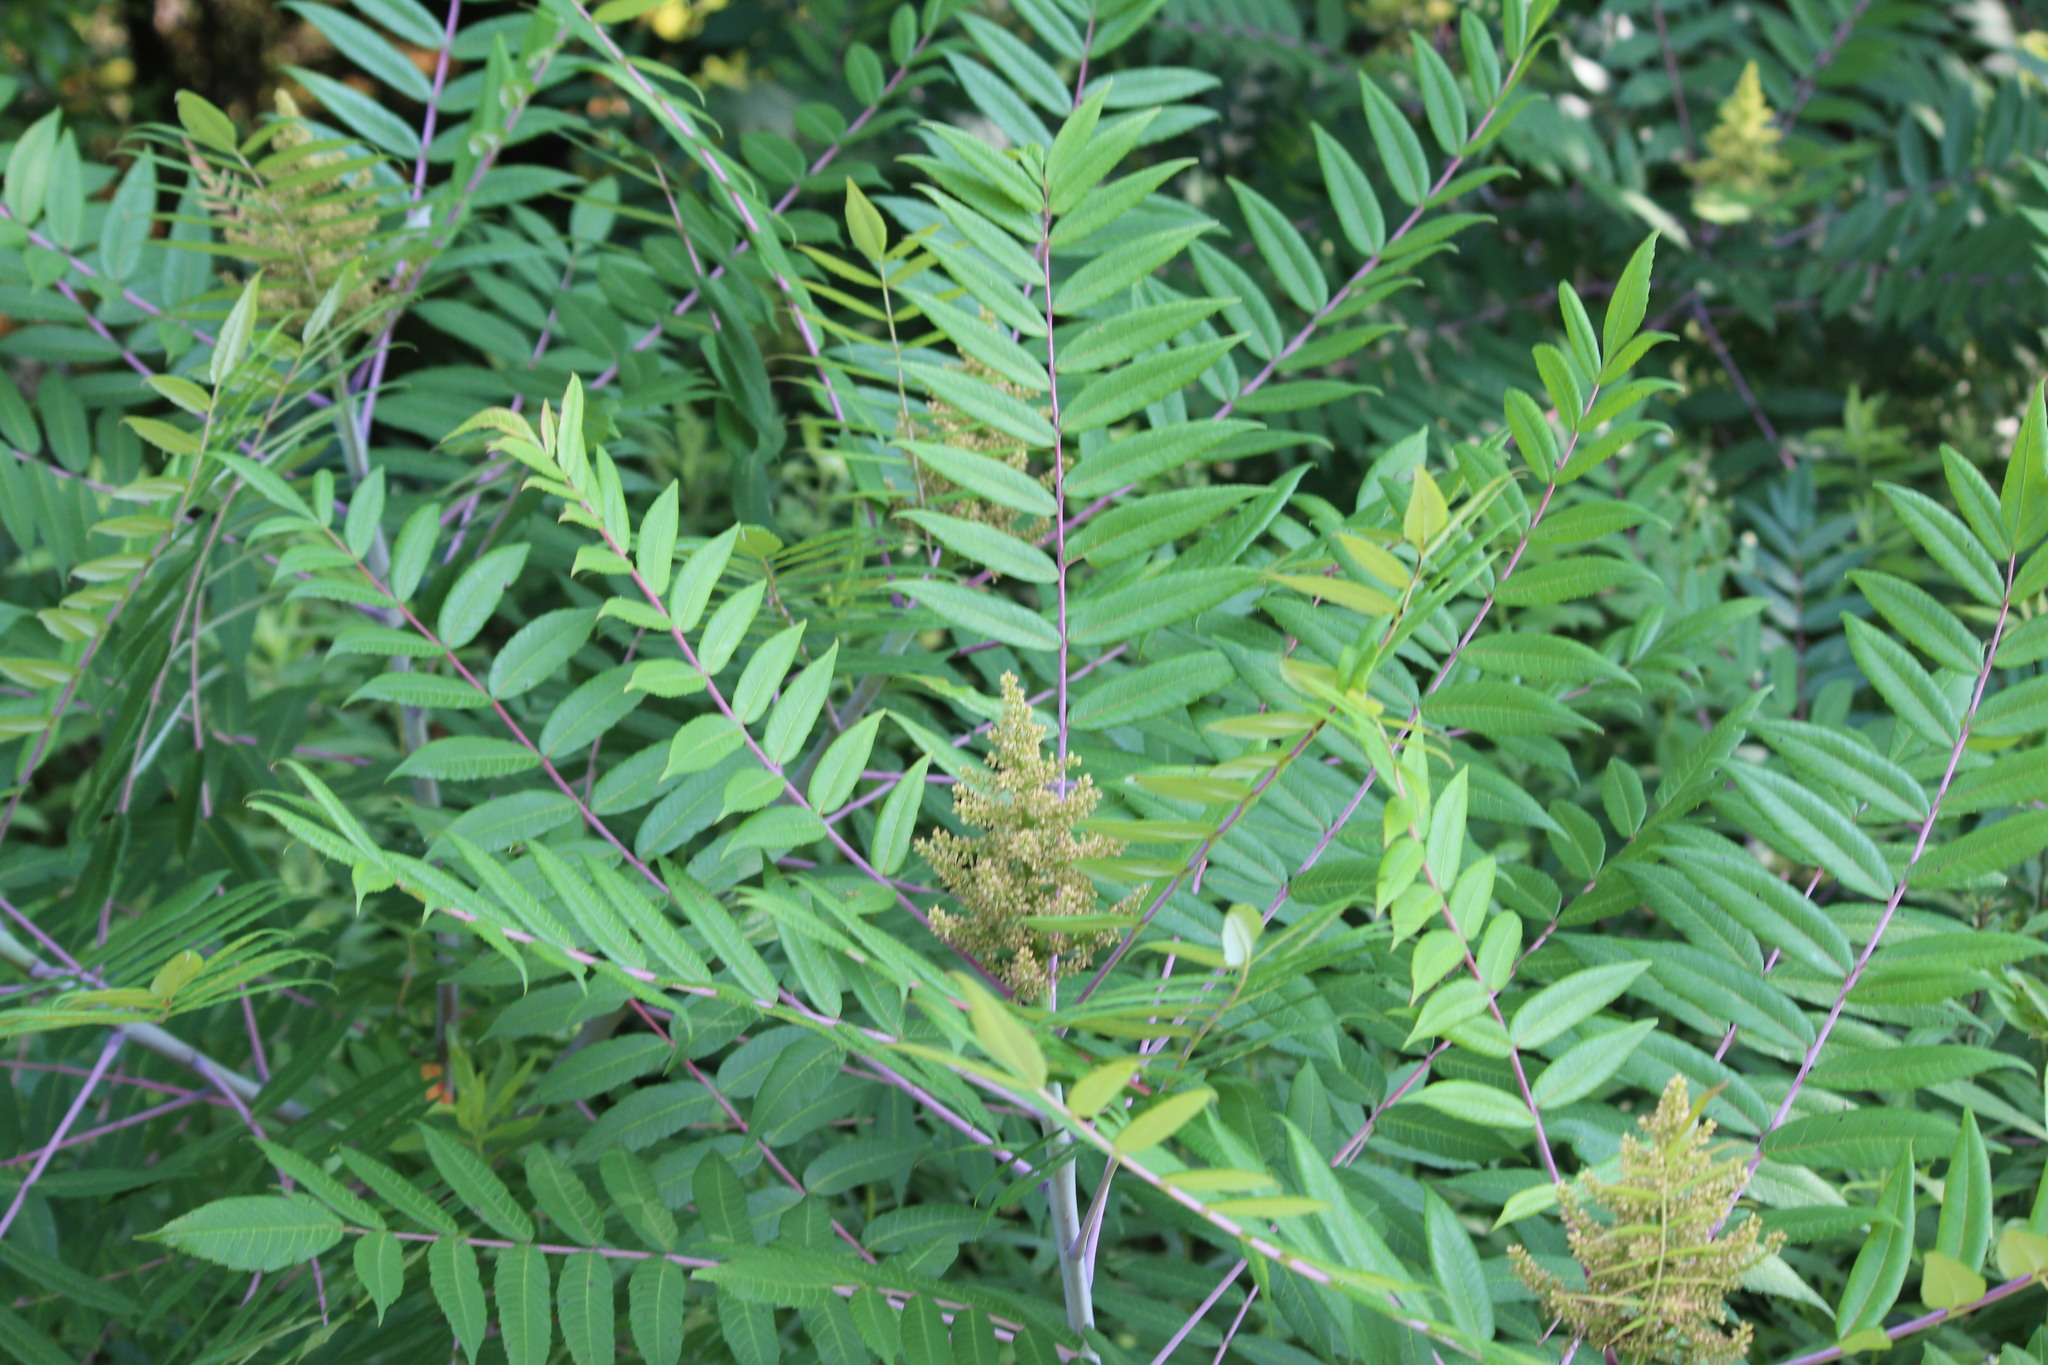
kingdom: Plantae
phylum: Tracheophyta
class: Magnoliopsida
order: Sapindales
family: Anacardiaceae
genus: Rhus
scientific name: Rhus glabra
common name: Scarlet sumac
